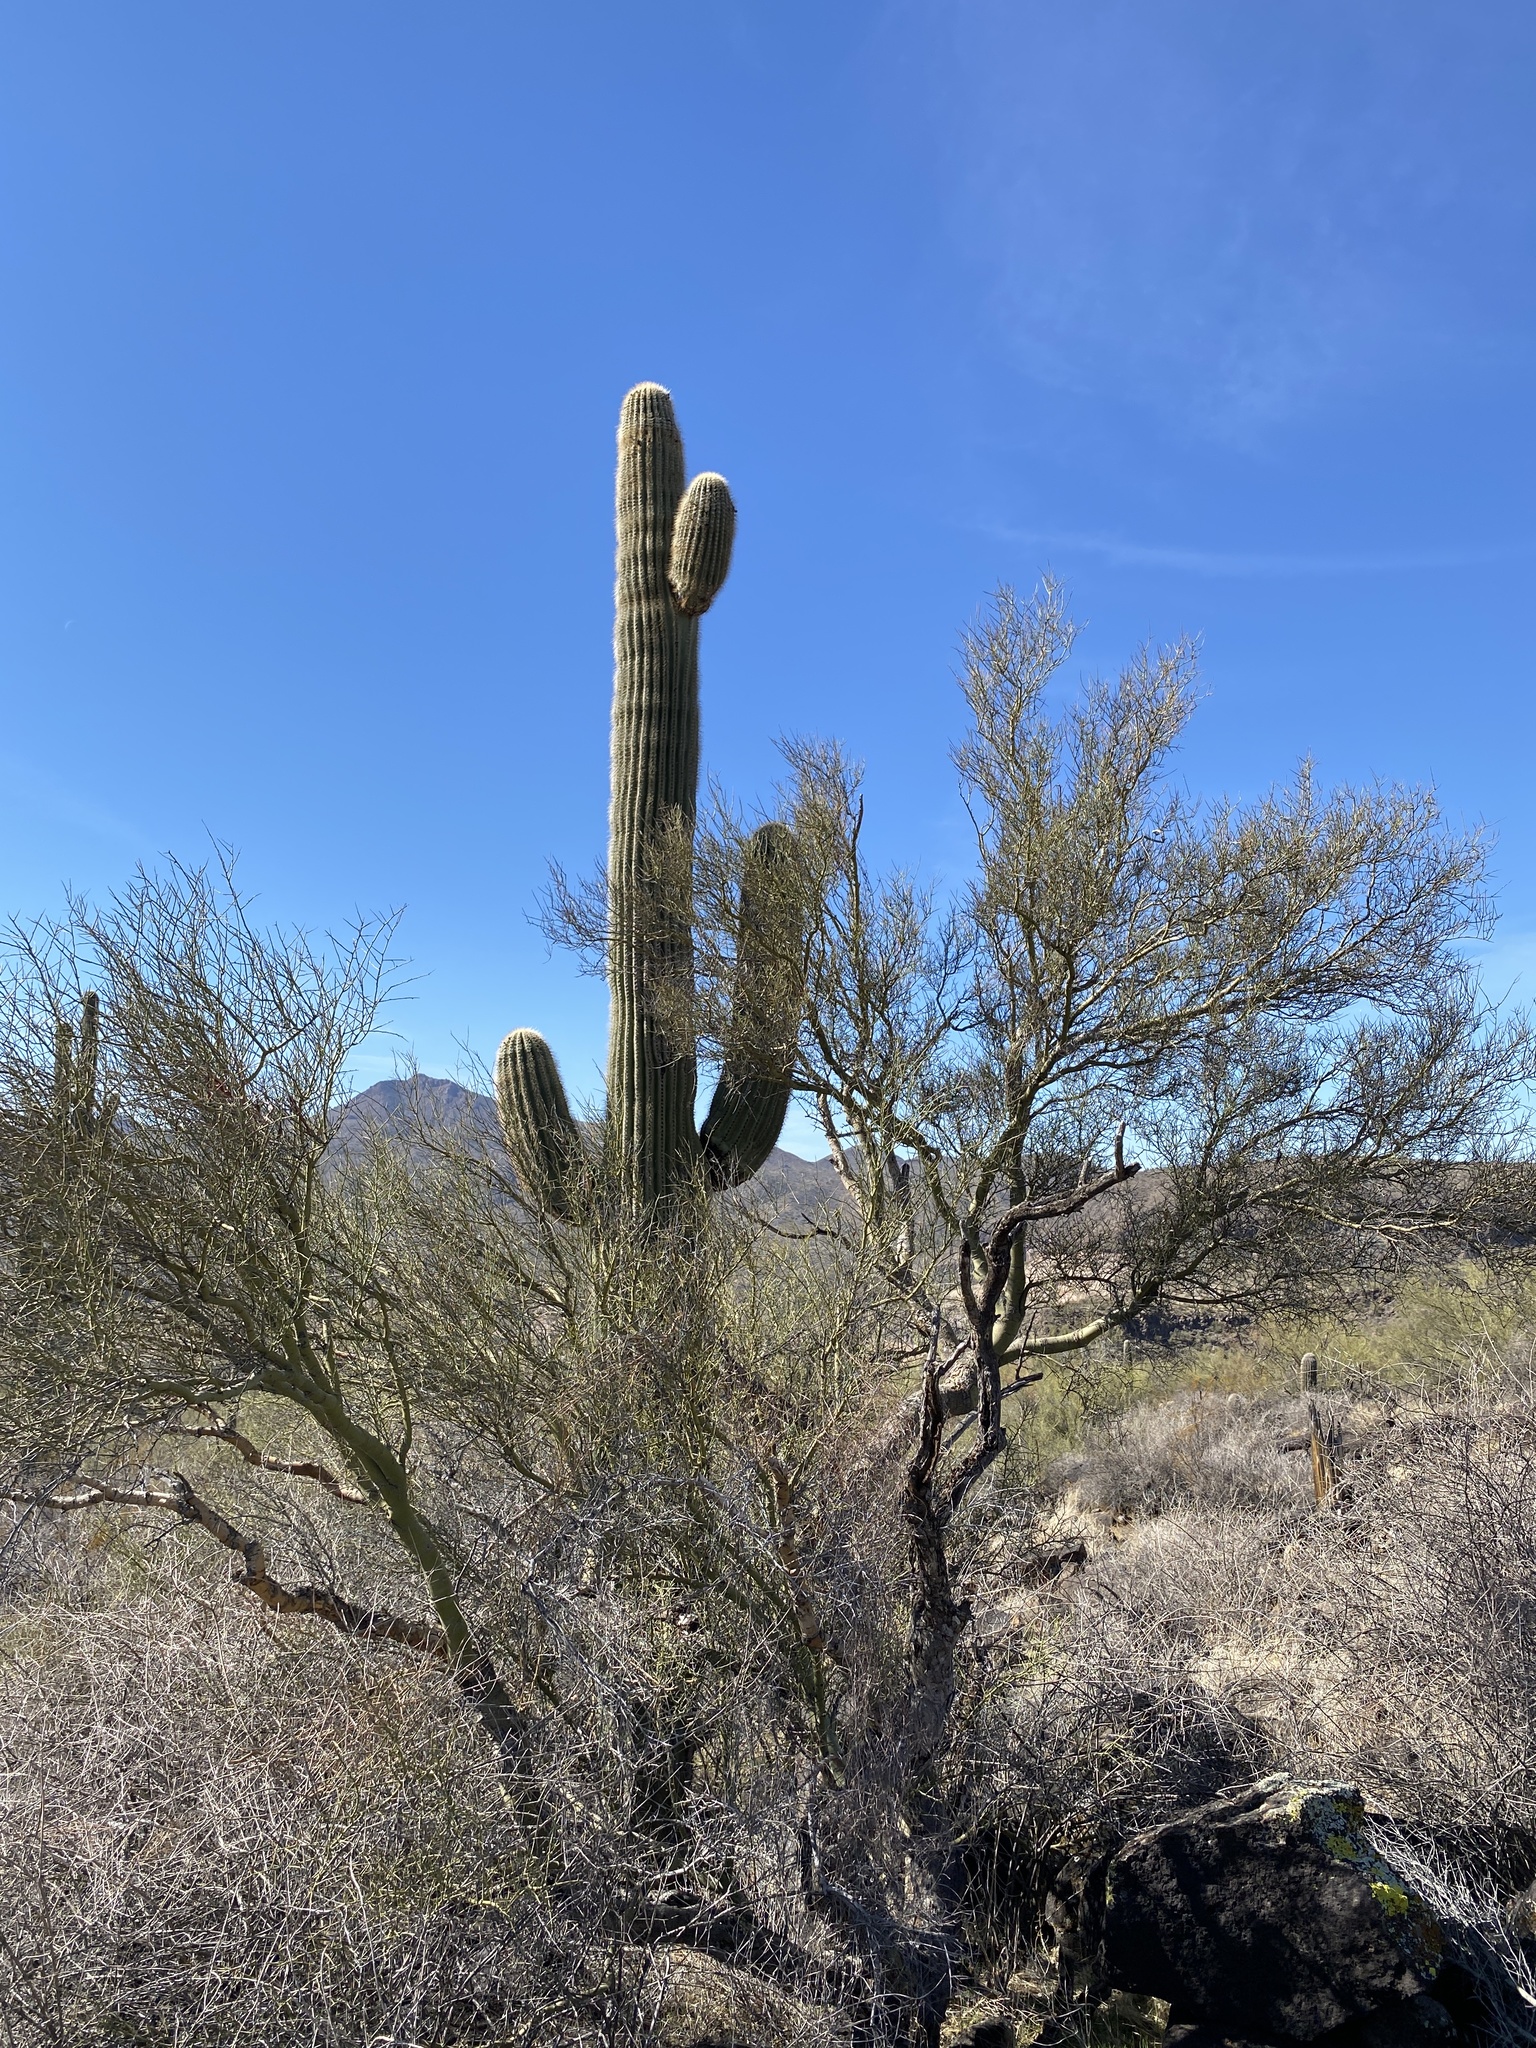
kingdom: Plantae
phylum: Tracheophyta
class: Magnoliopsida
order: Caryophyllales
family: Cactaceae
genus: Carnegiea
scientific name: Carnegiea gigantea
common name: Saguaro
